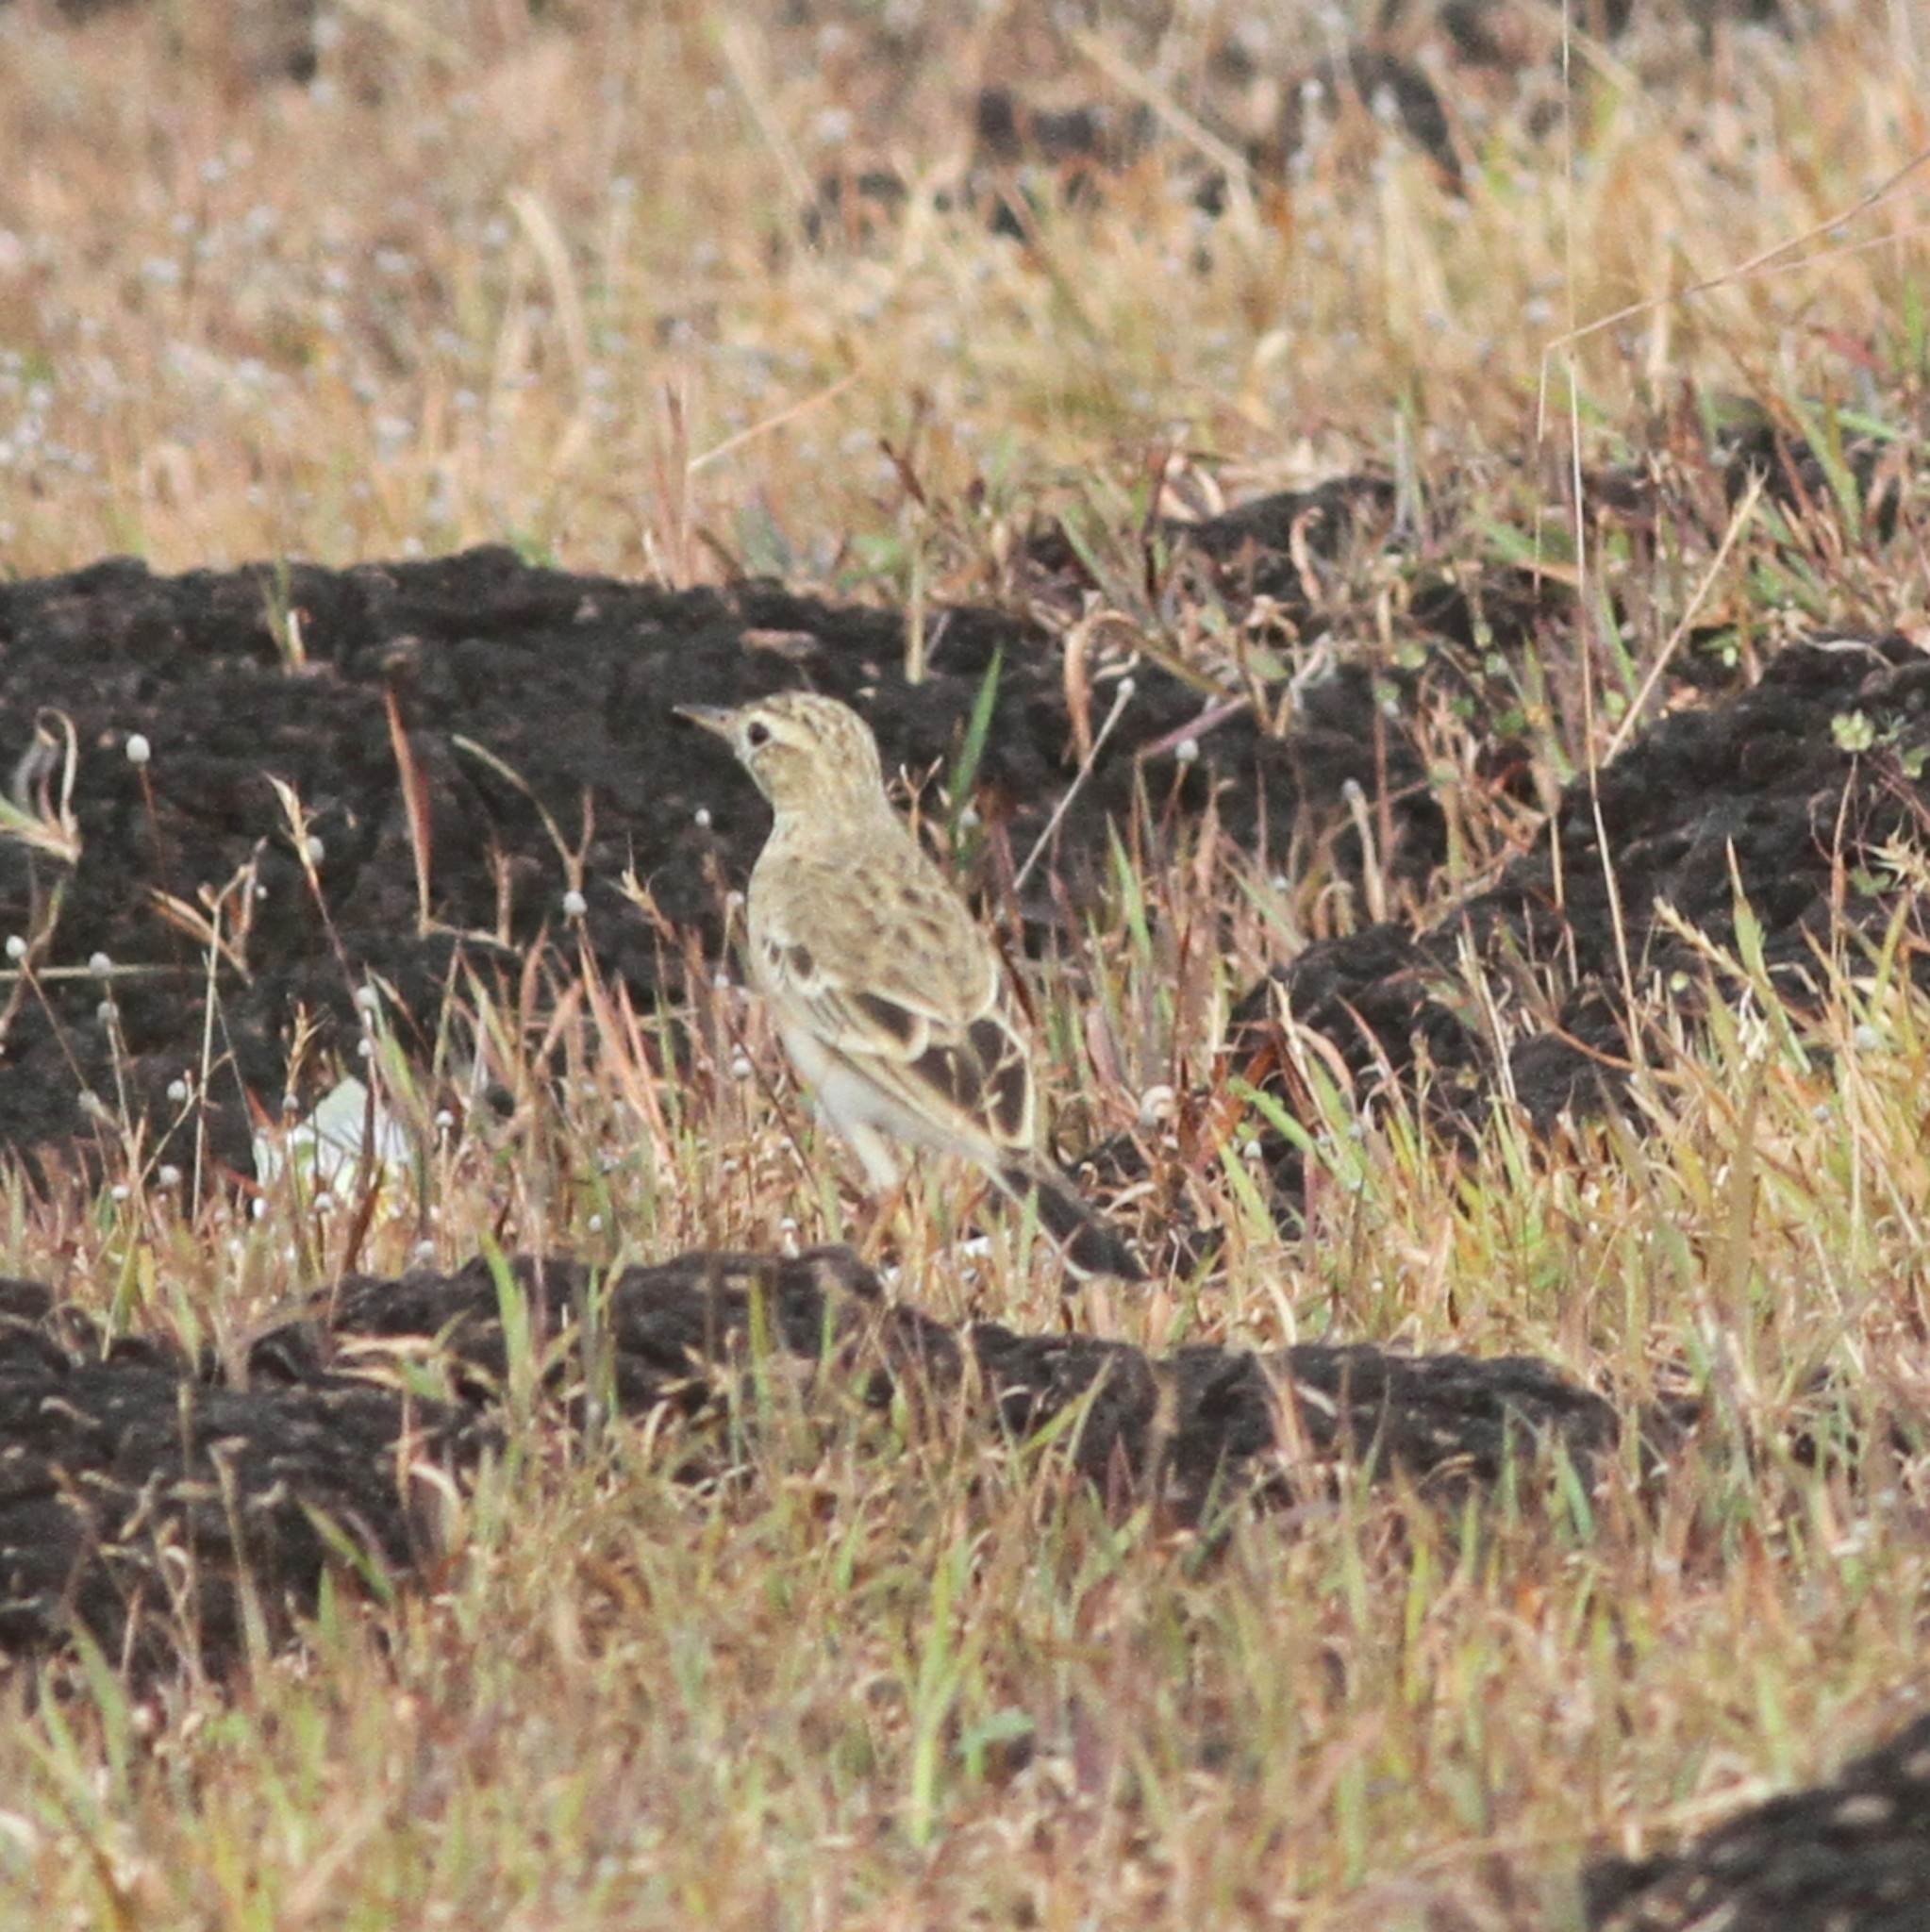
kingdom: Animalia
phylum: Chordata
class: Aves
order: Passeriformes
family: Motacillidae
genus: Anthus
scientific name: Anthus rufulus
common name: Paddyfield pipit
